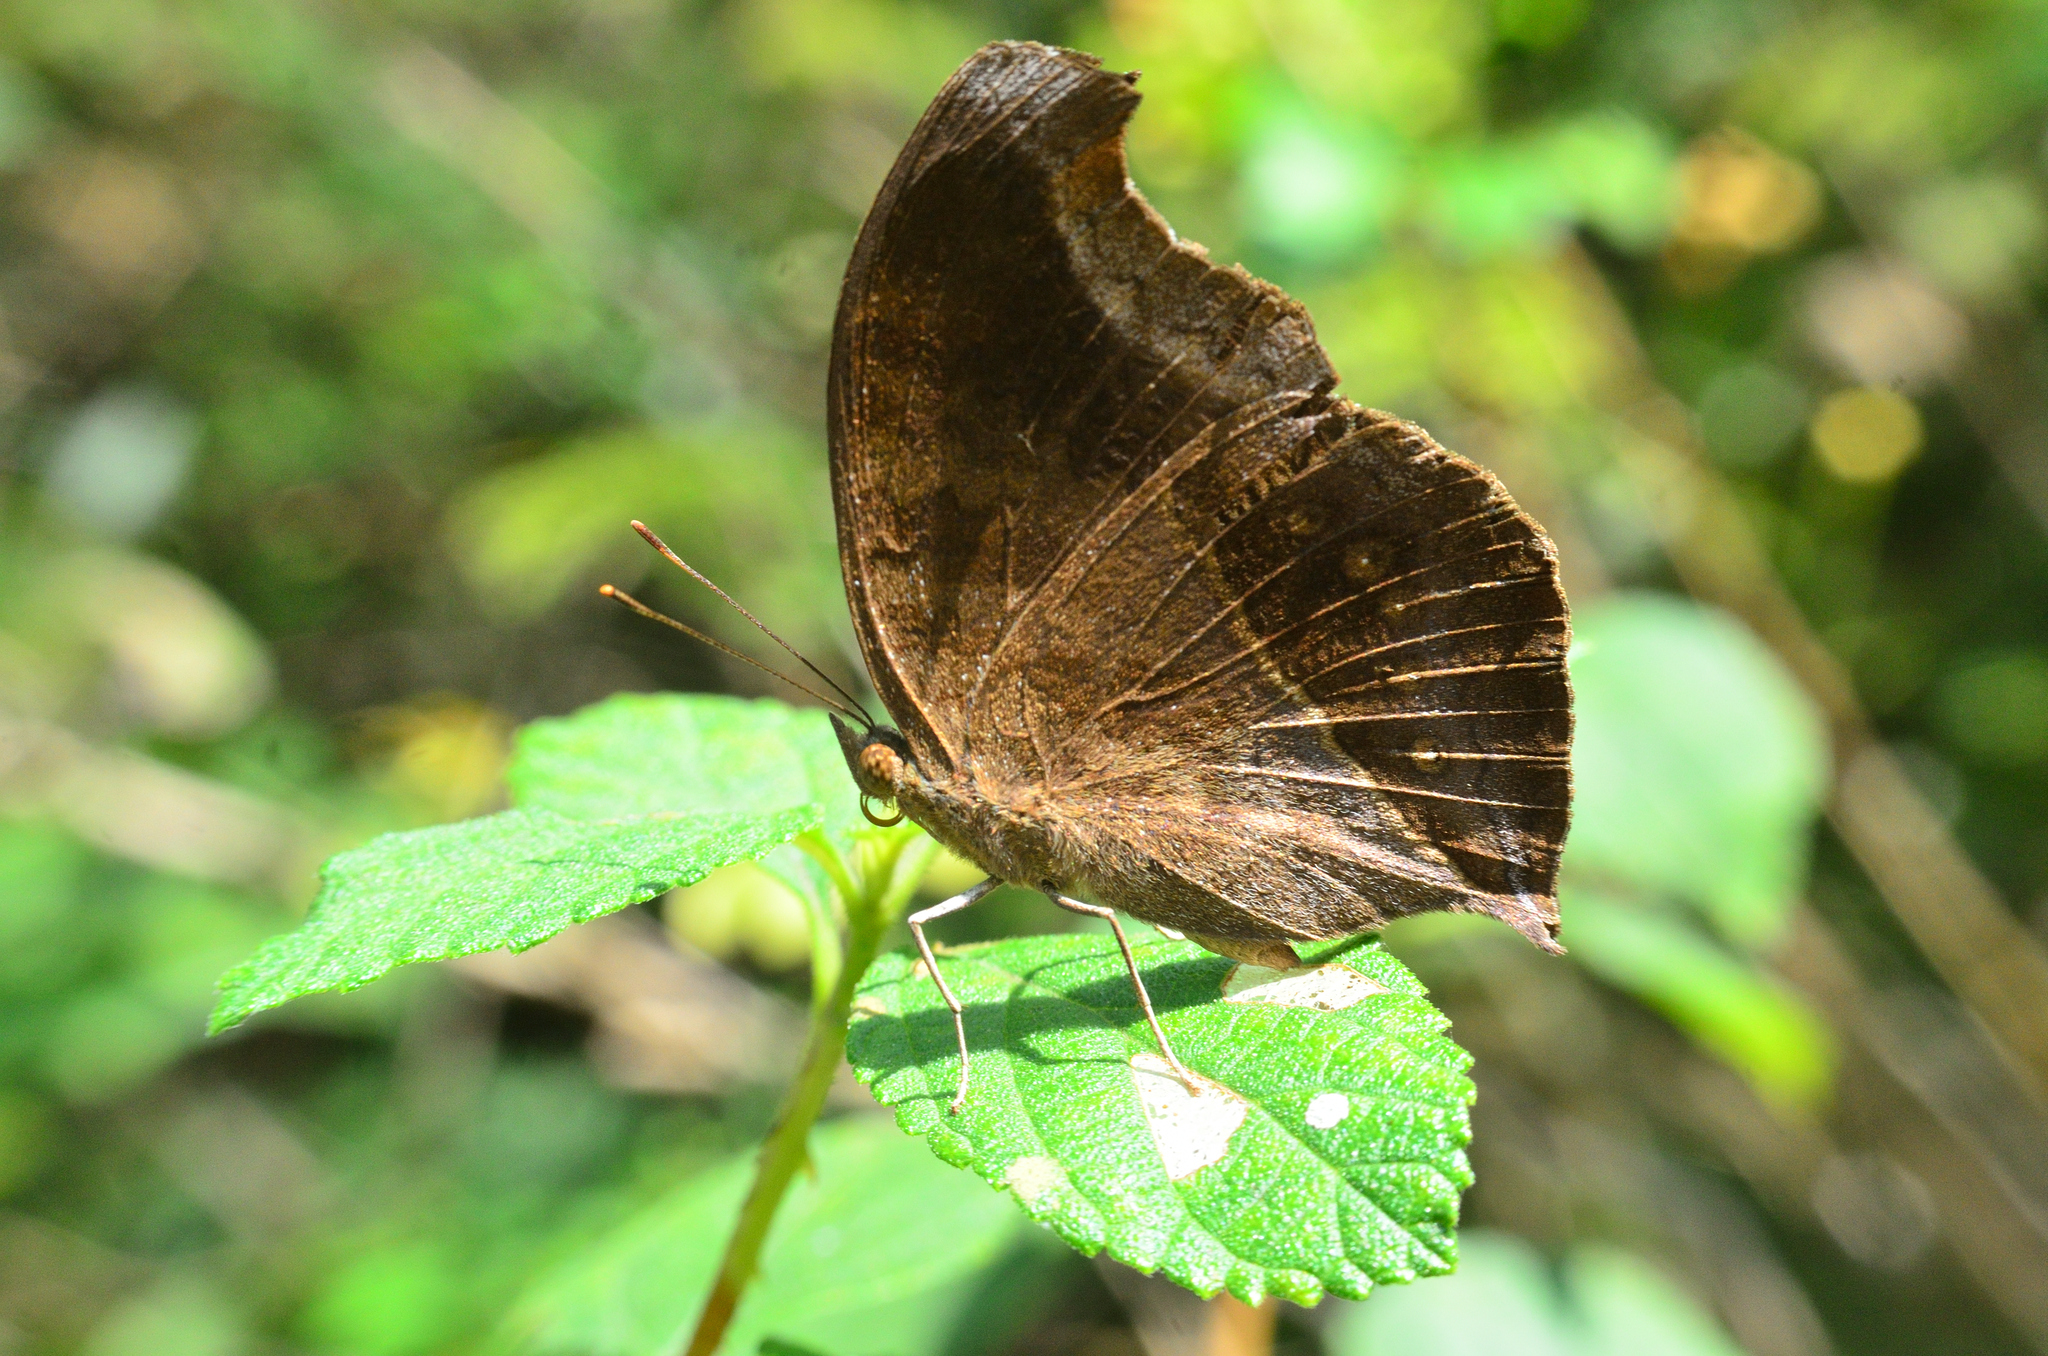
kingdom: Animalia
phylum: Arthropoda
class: Insecta
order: Lepidoptera
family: Nymphalidae
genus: Junonia
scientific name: Junonia iphita
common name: Chocolate pansy
